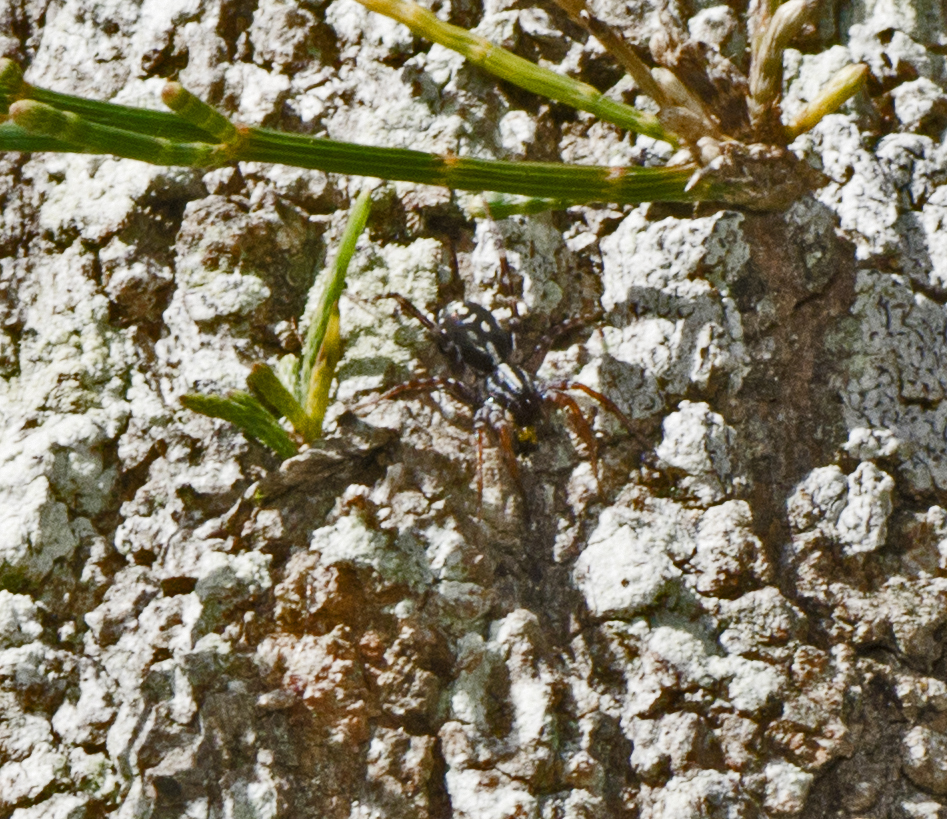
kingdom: Animalia
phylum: Arthropoda
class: Arachnida
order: Araneae
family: Corinnidae
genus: Nyssus
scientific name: Nyssus coloripes
